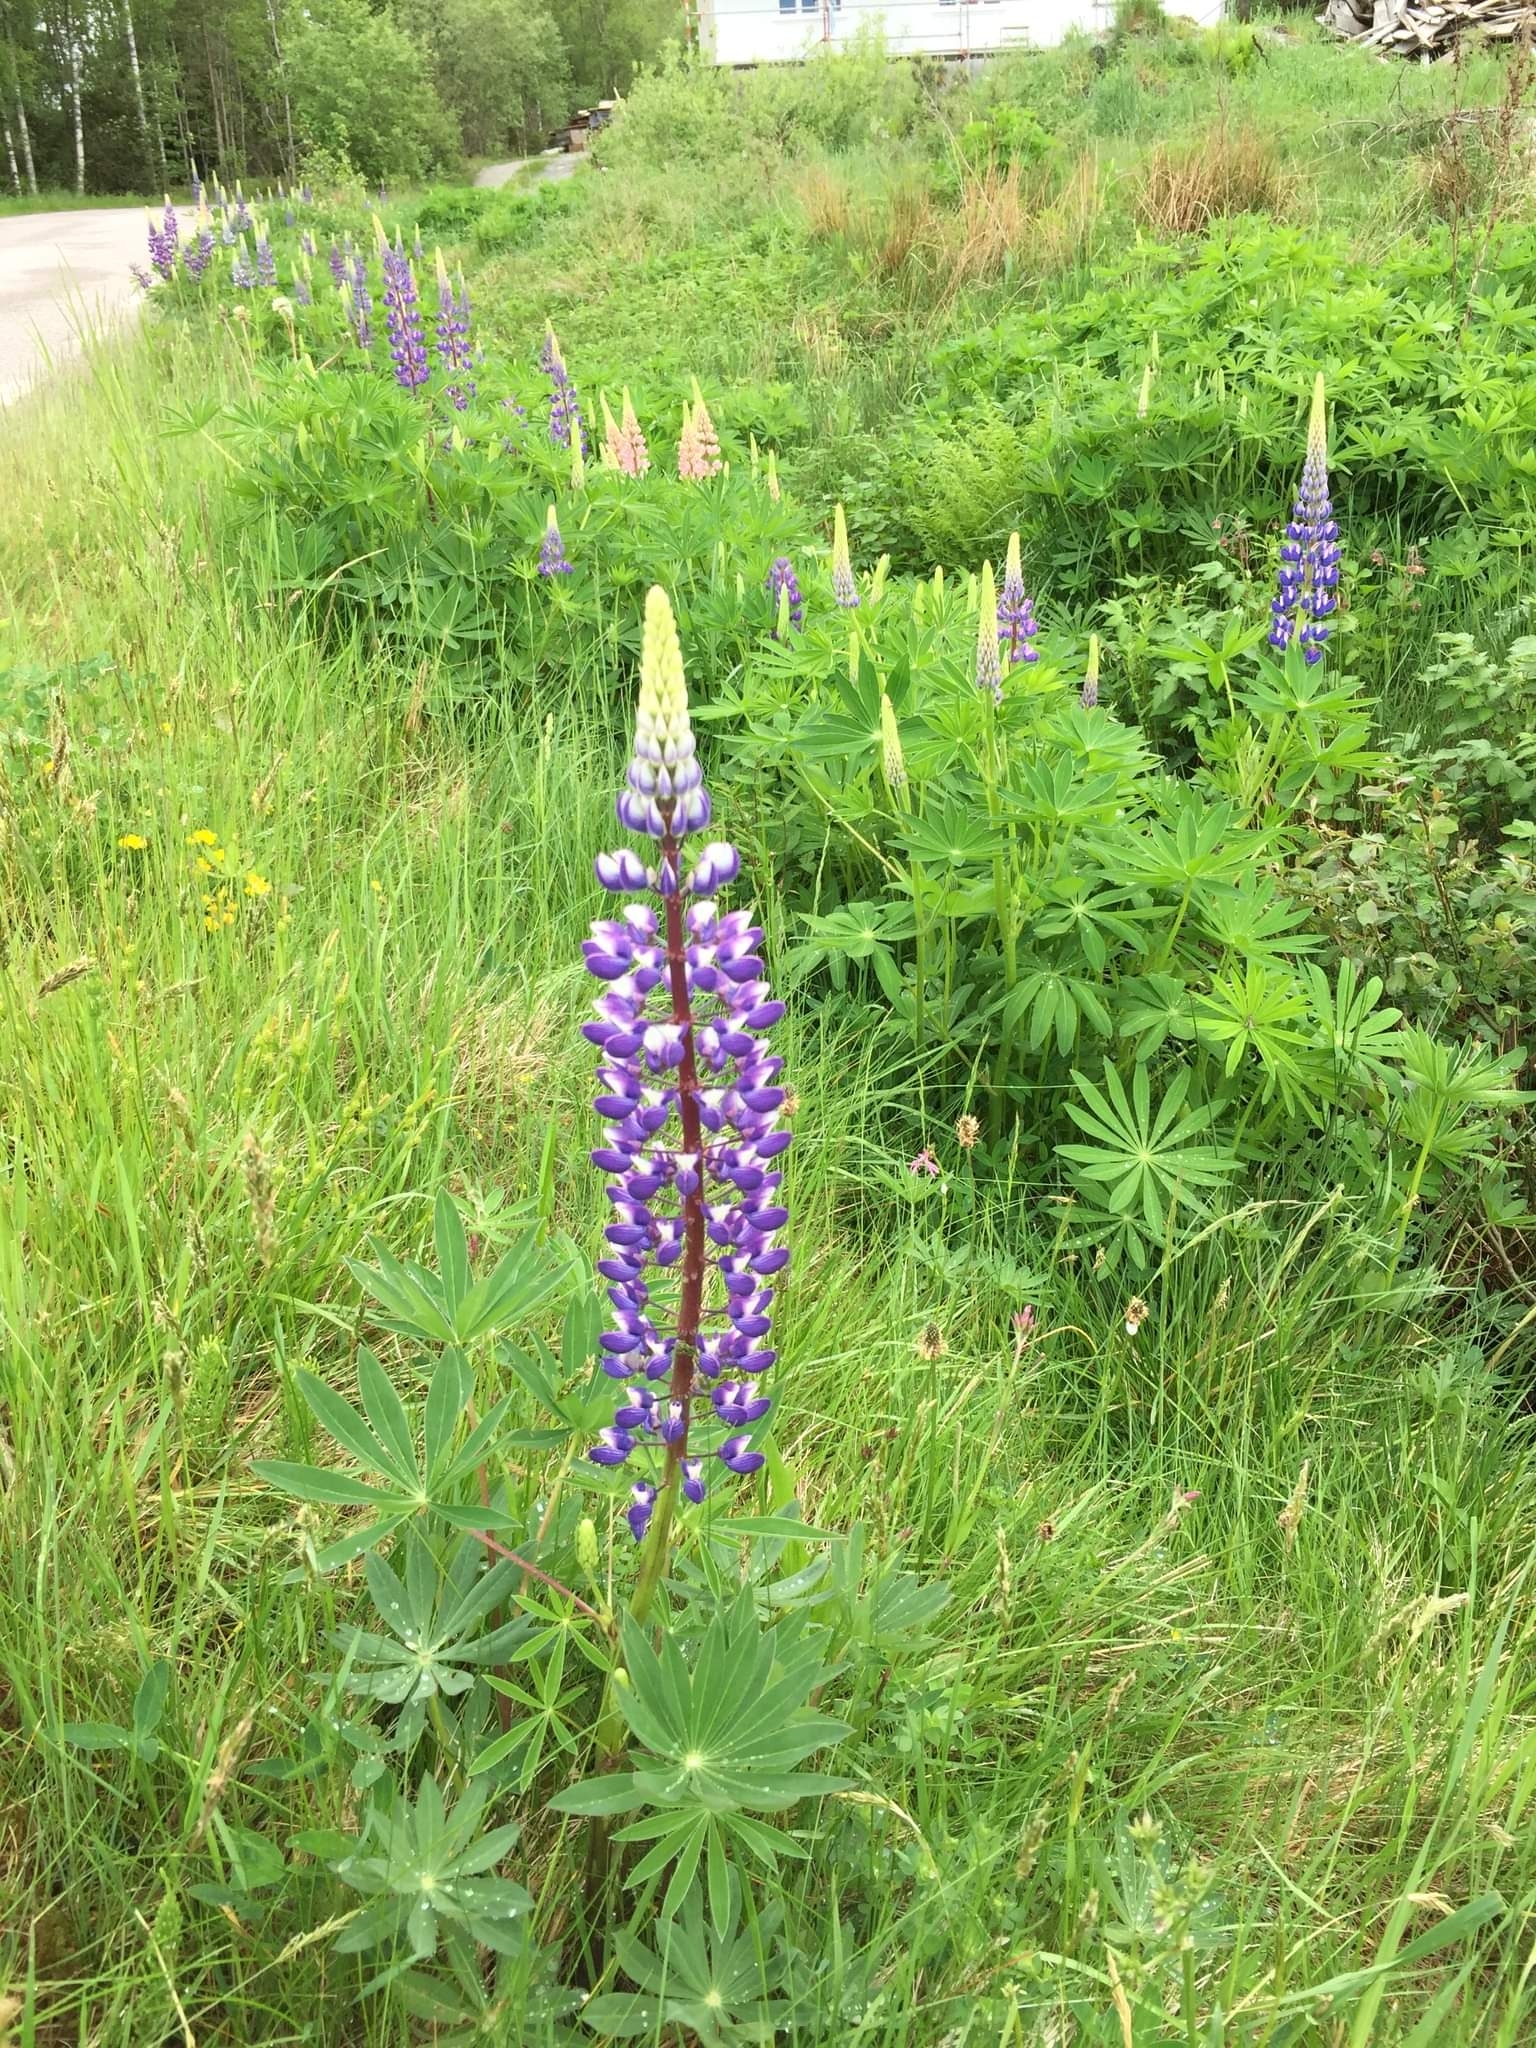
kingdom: Plantae
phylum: Tracheophyta
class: Magnoliopsida
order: Fabales
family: Fabaceae
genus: Lupinus
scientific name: Lupinus polyphyllus
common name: Garden lupin
